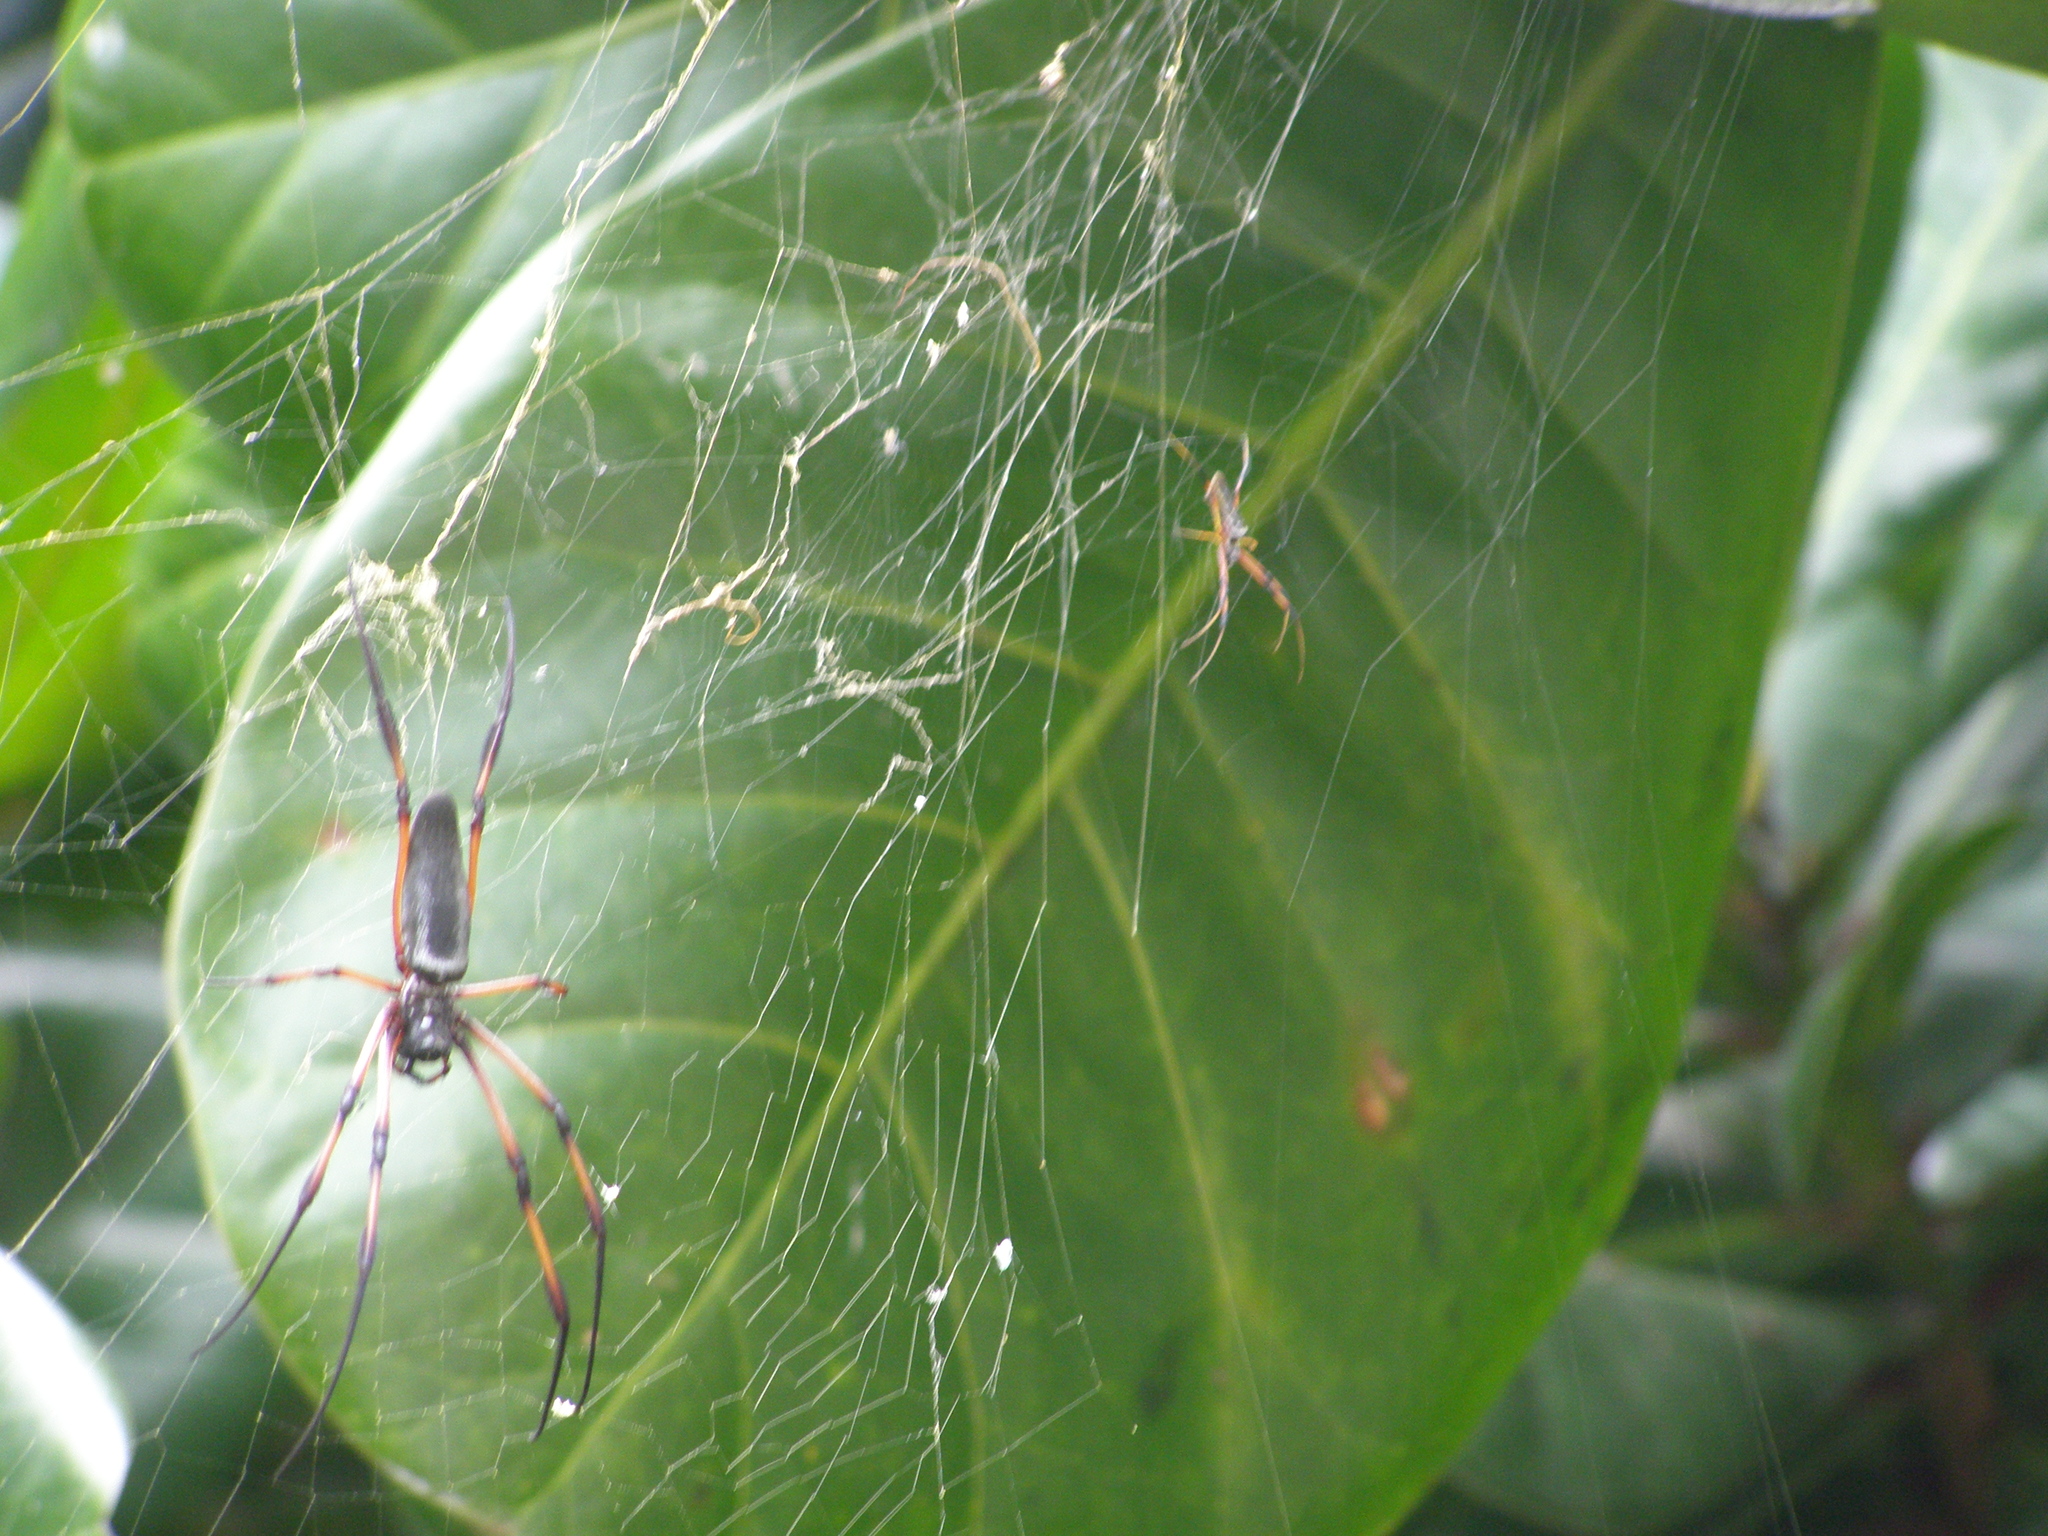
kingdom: Animalia
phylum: Arthropoda
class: Arachnida
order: Araneae
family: Araneidae
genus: Trichonephila
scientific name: Trichonephila inaurata
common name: Red-legged golden orb weaver
